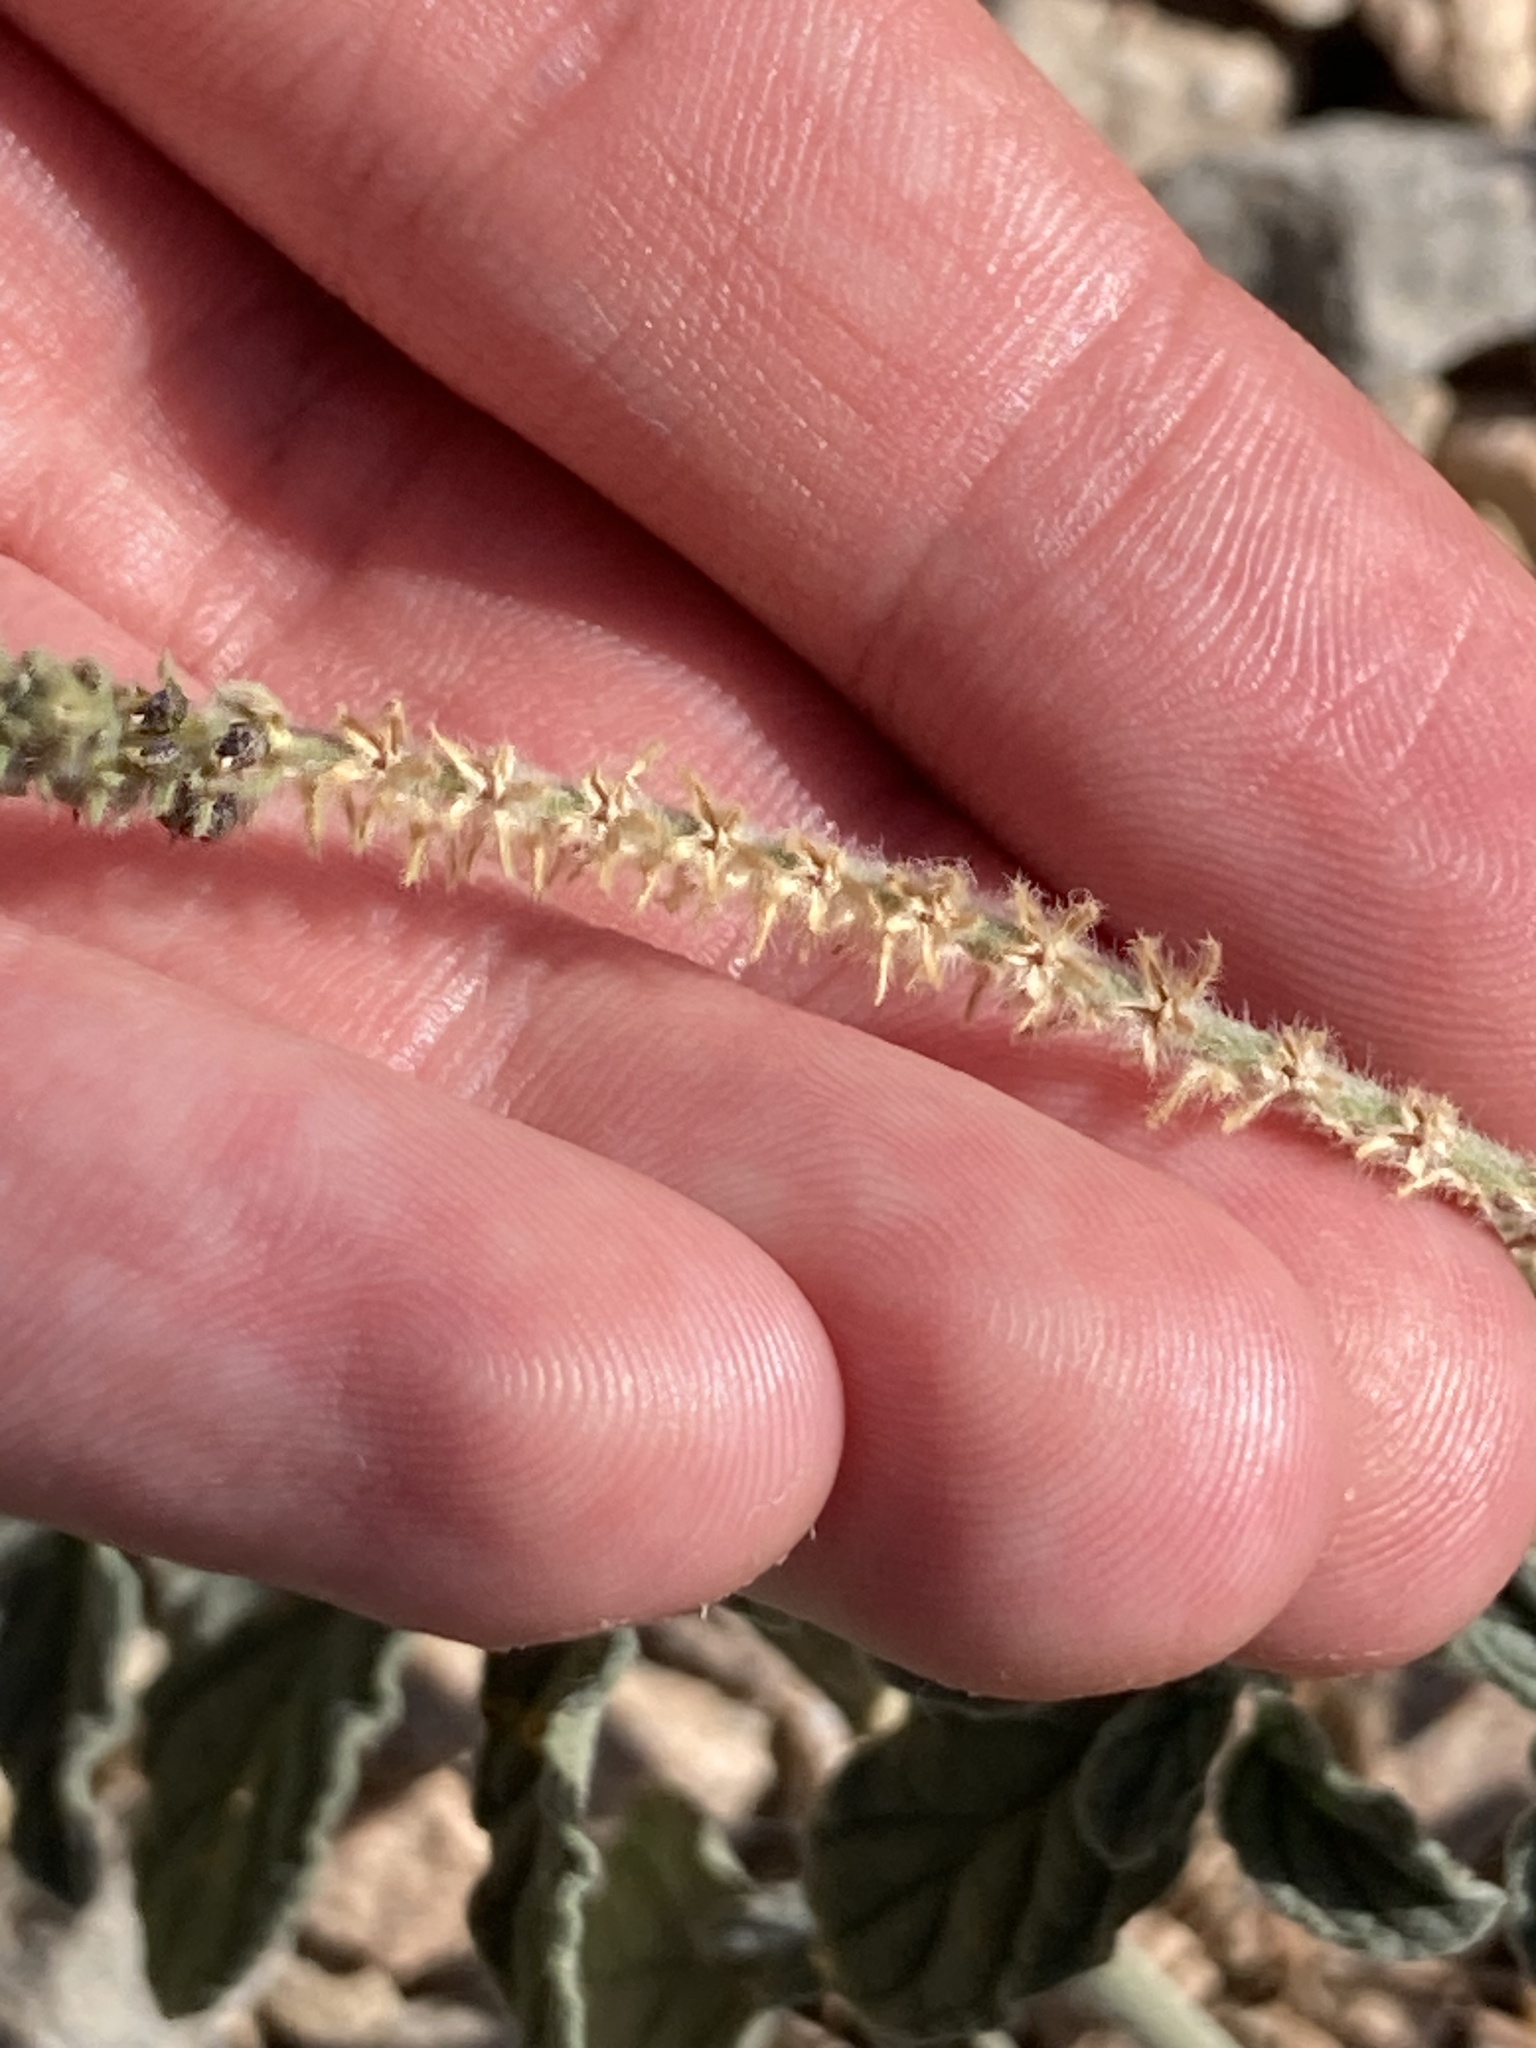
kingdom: Plantae
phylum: Tracheophyta
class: Magnoliopsida
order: Boraginales
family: Heliotropiaceae
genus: Heliotropium
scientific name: Heliotropium europaeum
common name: European heliotrope
